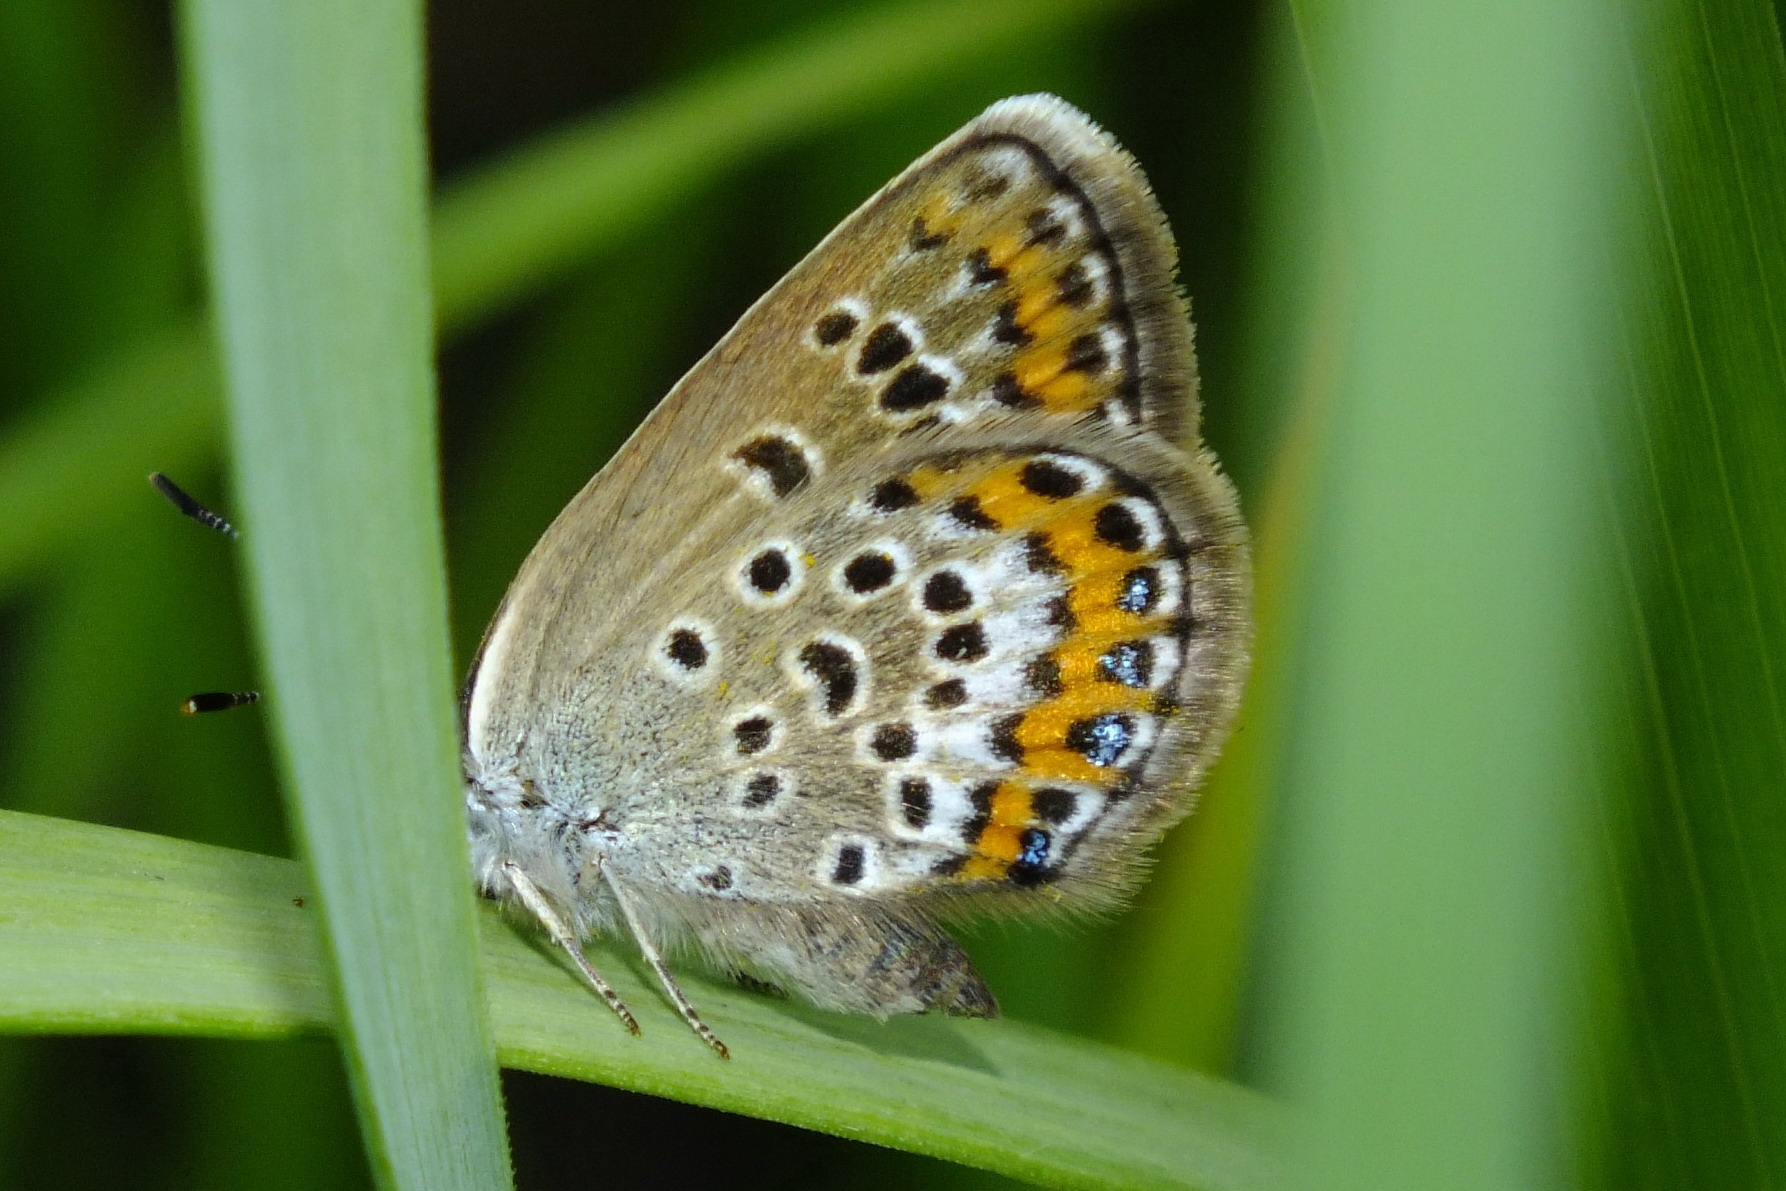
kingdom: Animalia
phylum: Arthropoda
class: Insecta
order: Lepidoptera
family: Lycaenidae
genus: Plebejus
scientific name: Plebejus argus
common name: Silver-studded blue
